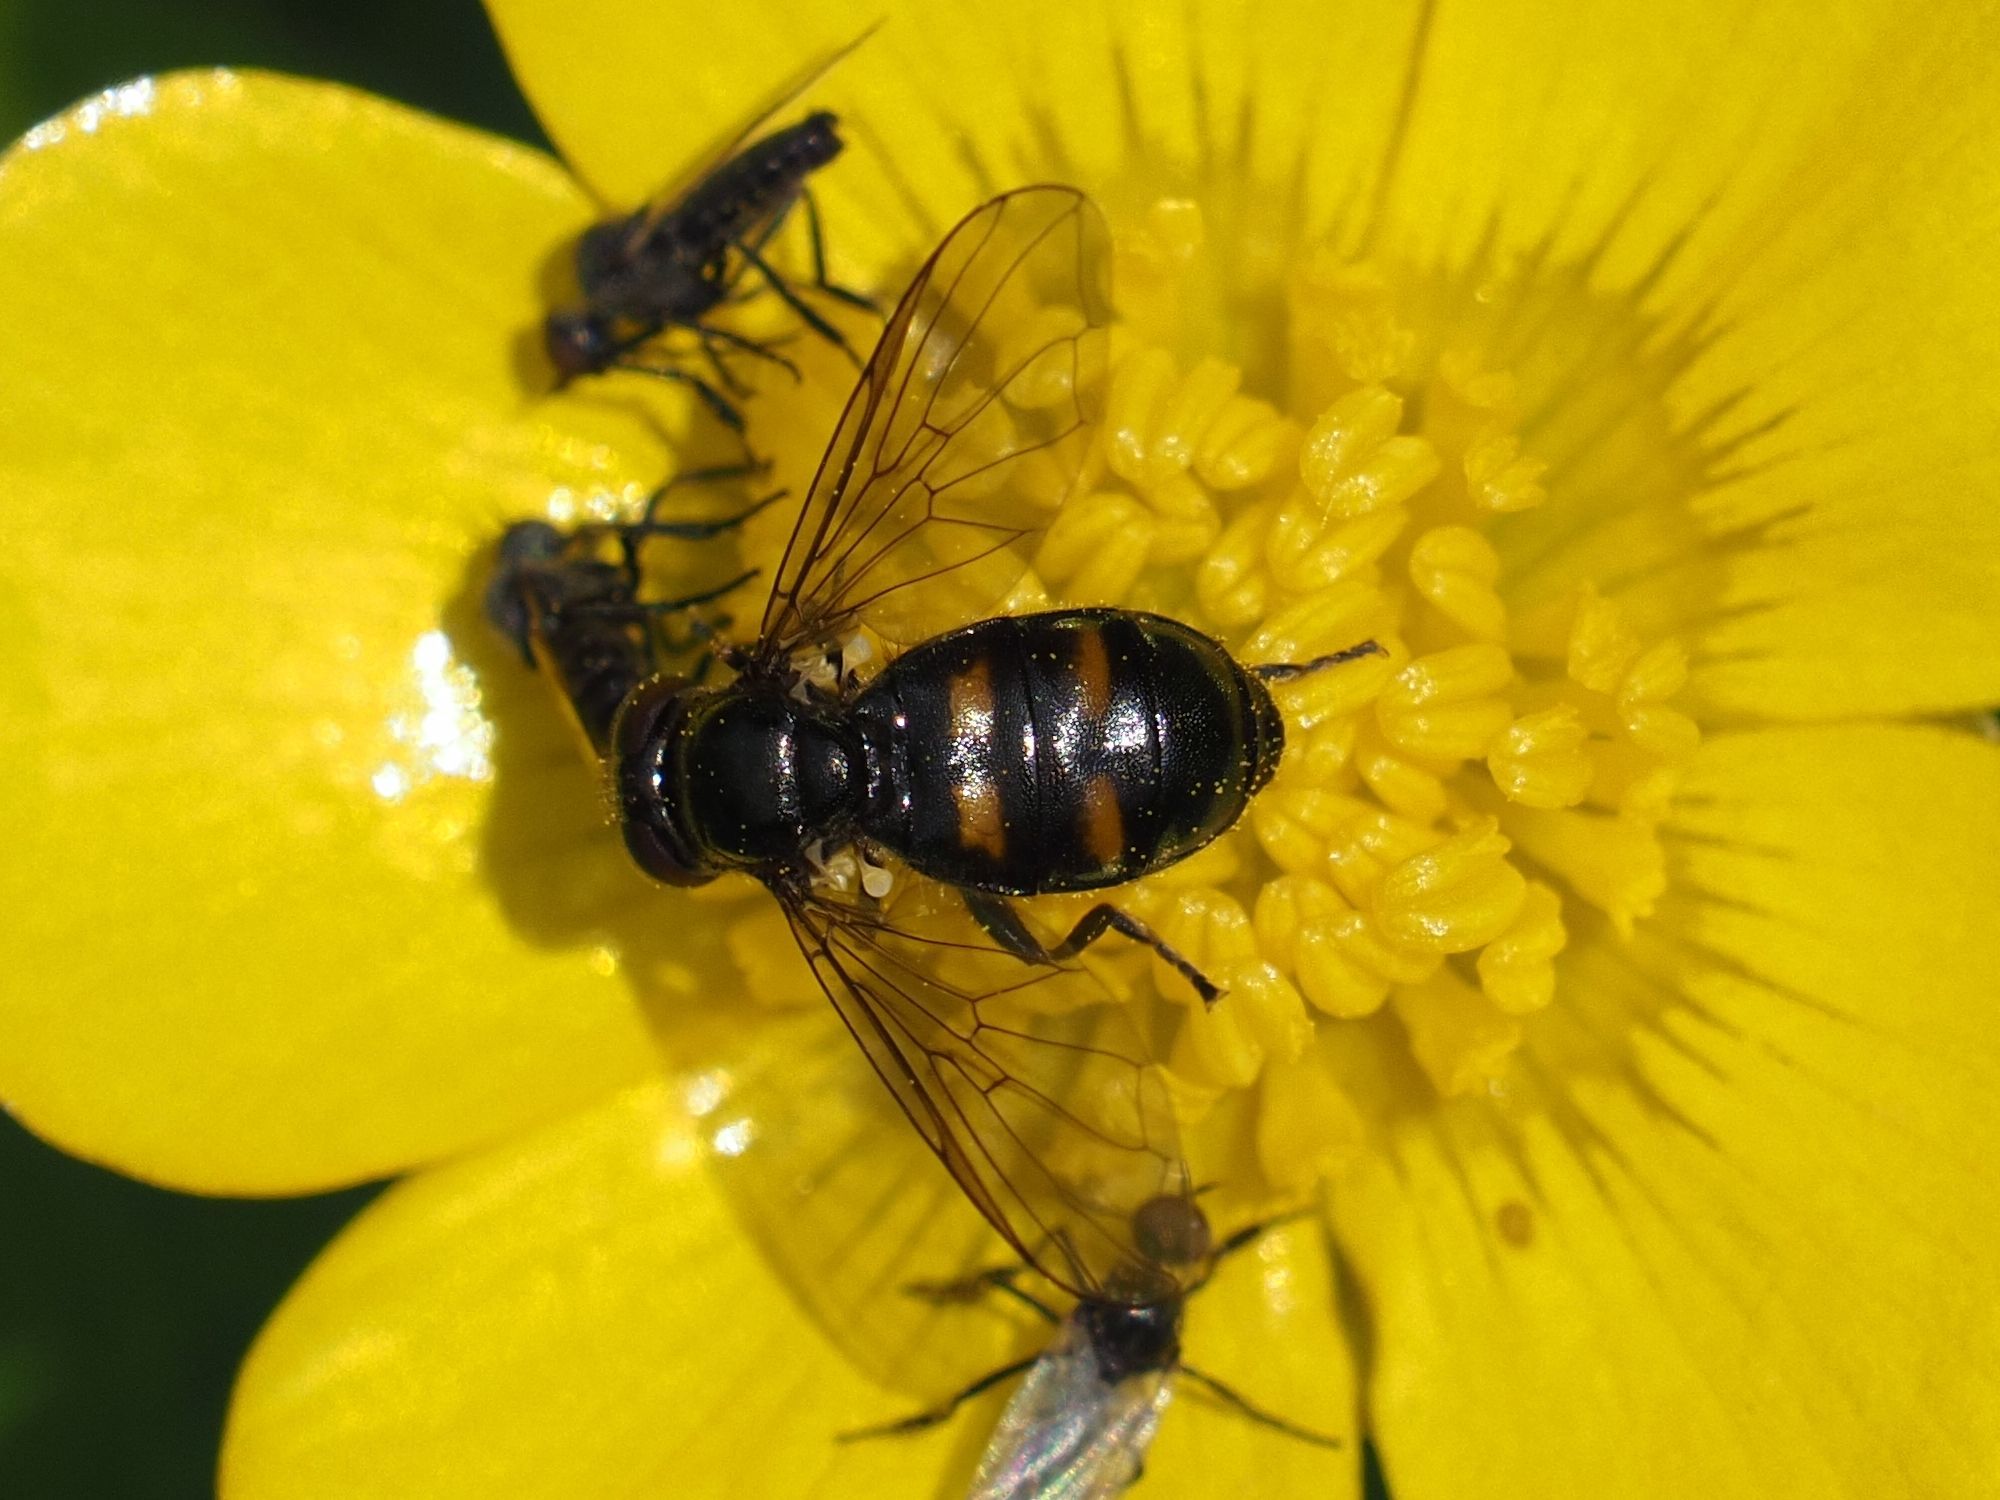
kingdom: Animalia
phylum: Arthropoda
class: Insecta
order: Diptera
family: Syrphidae
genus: Pipiza
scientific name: Pipiza quadrimaculata
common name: Four-spotted pipiza
